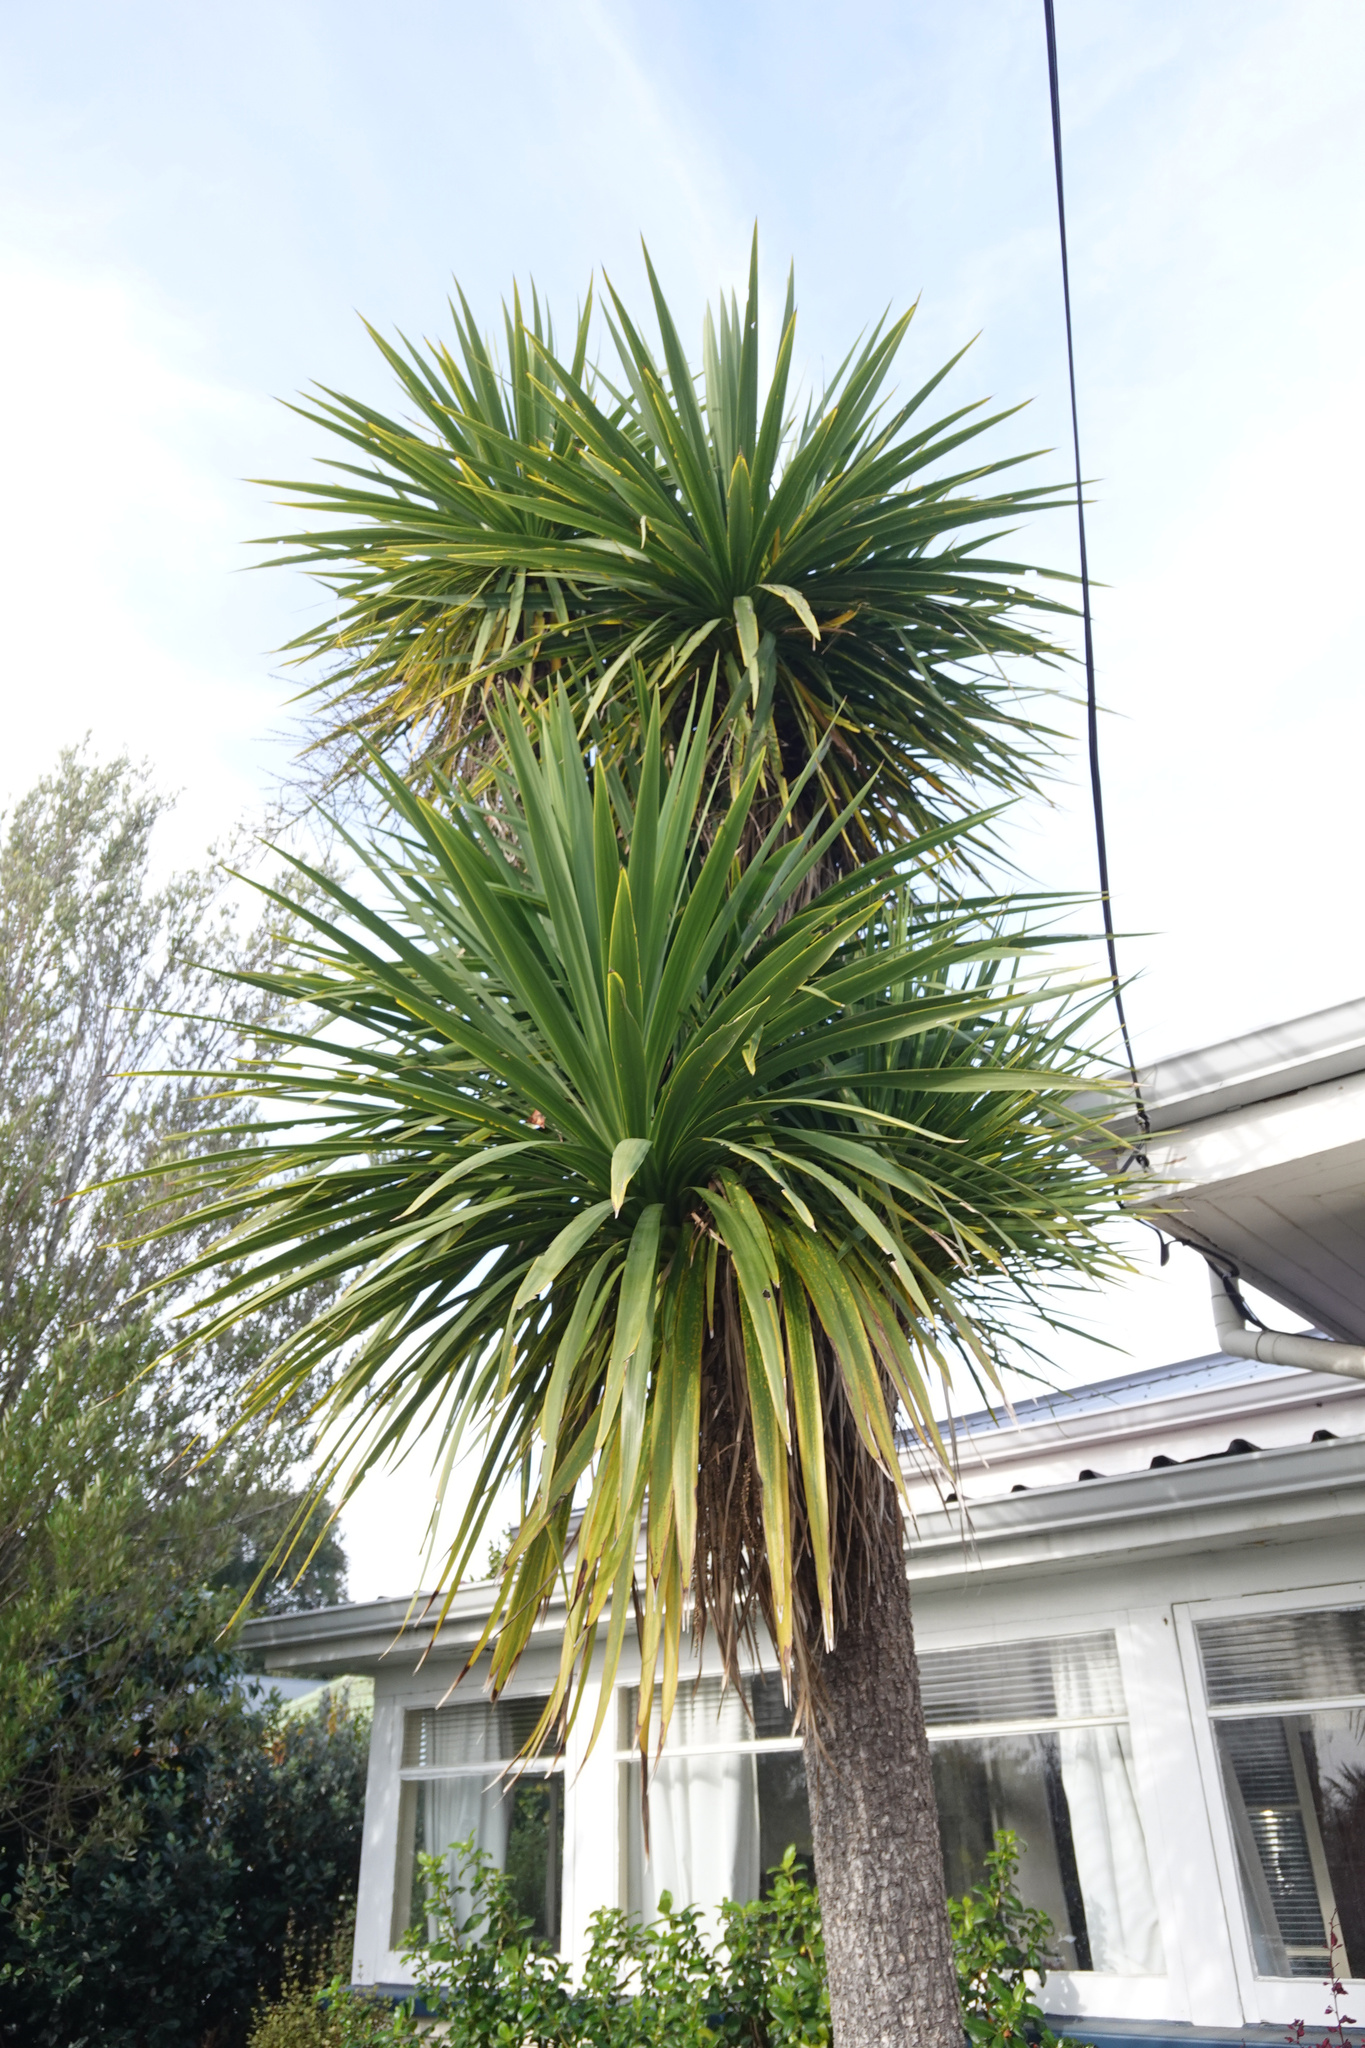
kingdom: Plantae
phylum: Tracheophyta
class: Liliopsida
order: Asparagales
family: Asparagaceae
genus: Cordyline
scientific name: Cordyline australis
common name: Cabbage-palm
